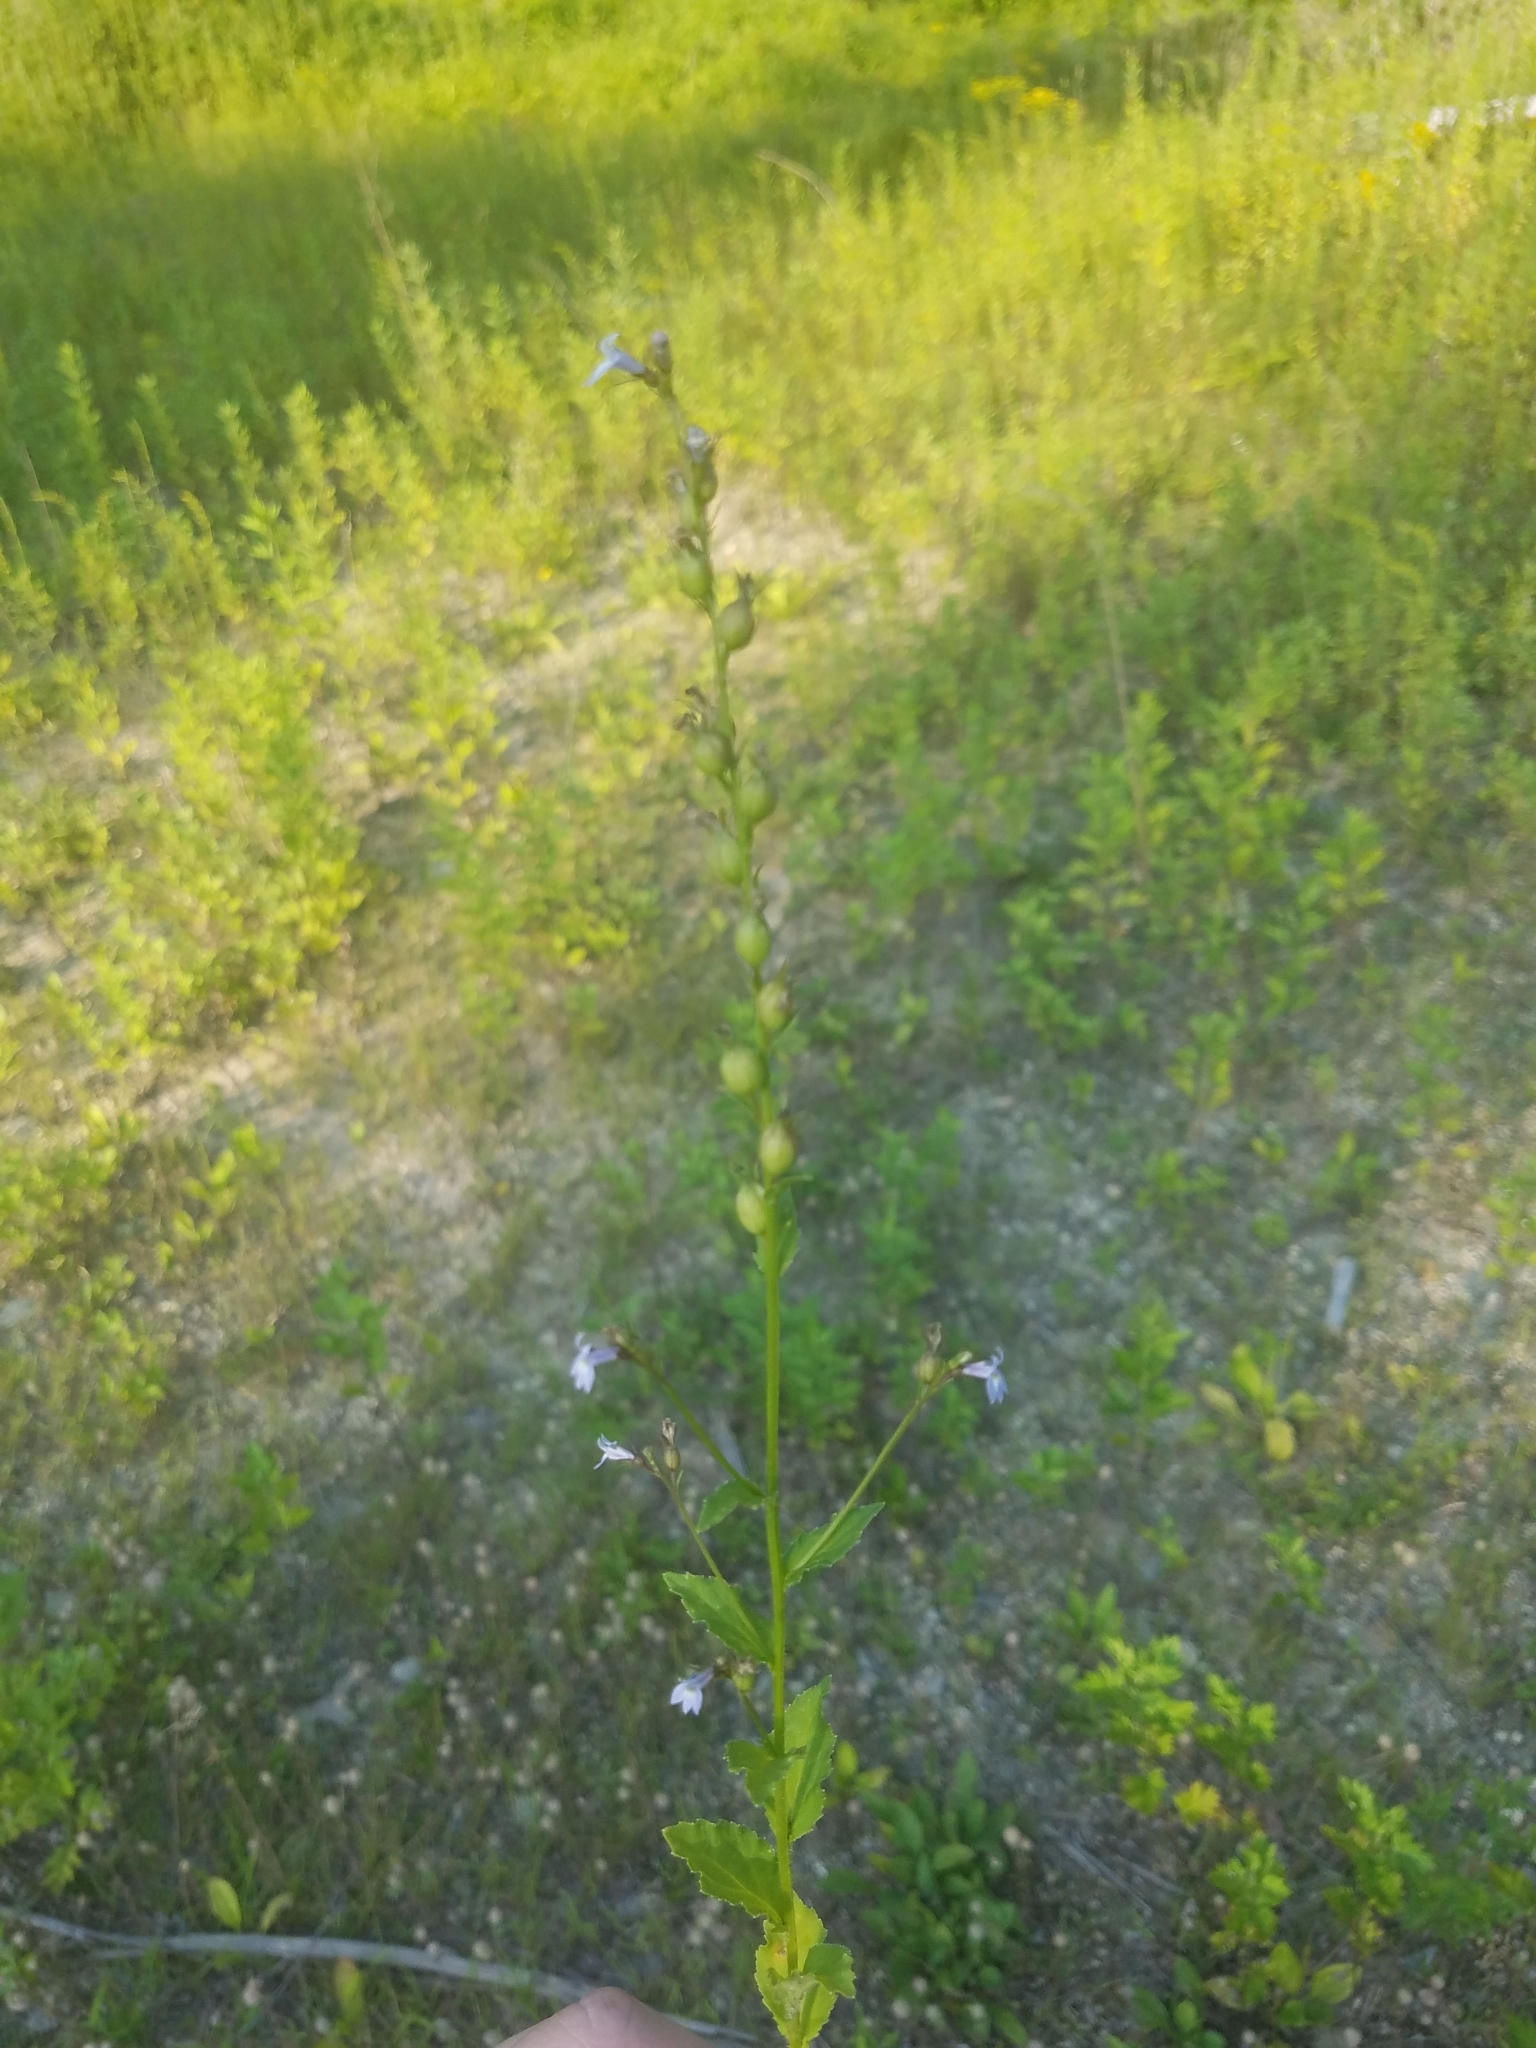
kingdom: Plantae
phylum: Tracheophyta
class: Magnoliopsida
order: Asterales
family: Campanulaceae
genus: Lobelia
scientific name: Lobelia inflata
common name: Indian tobacco
